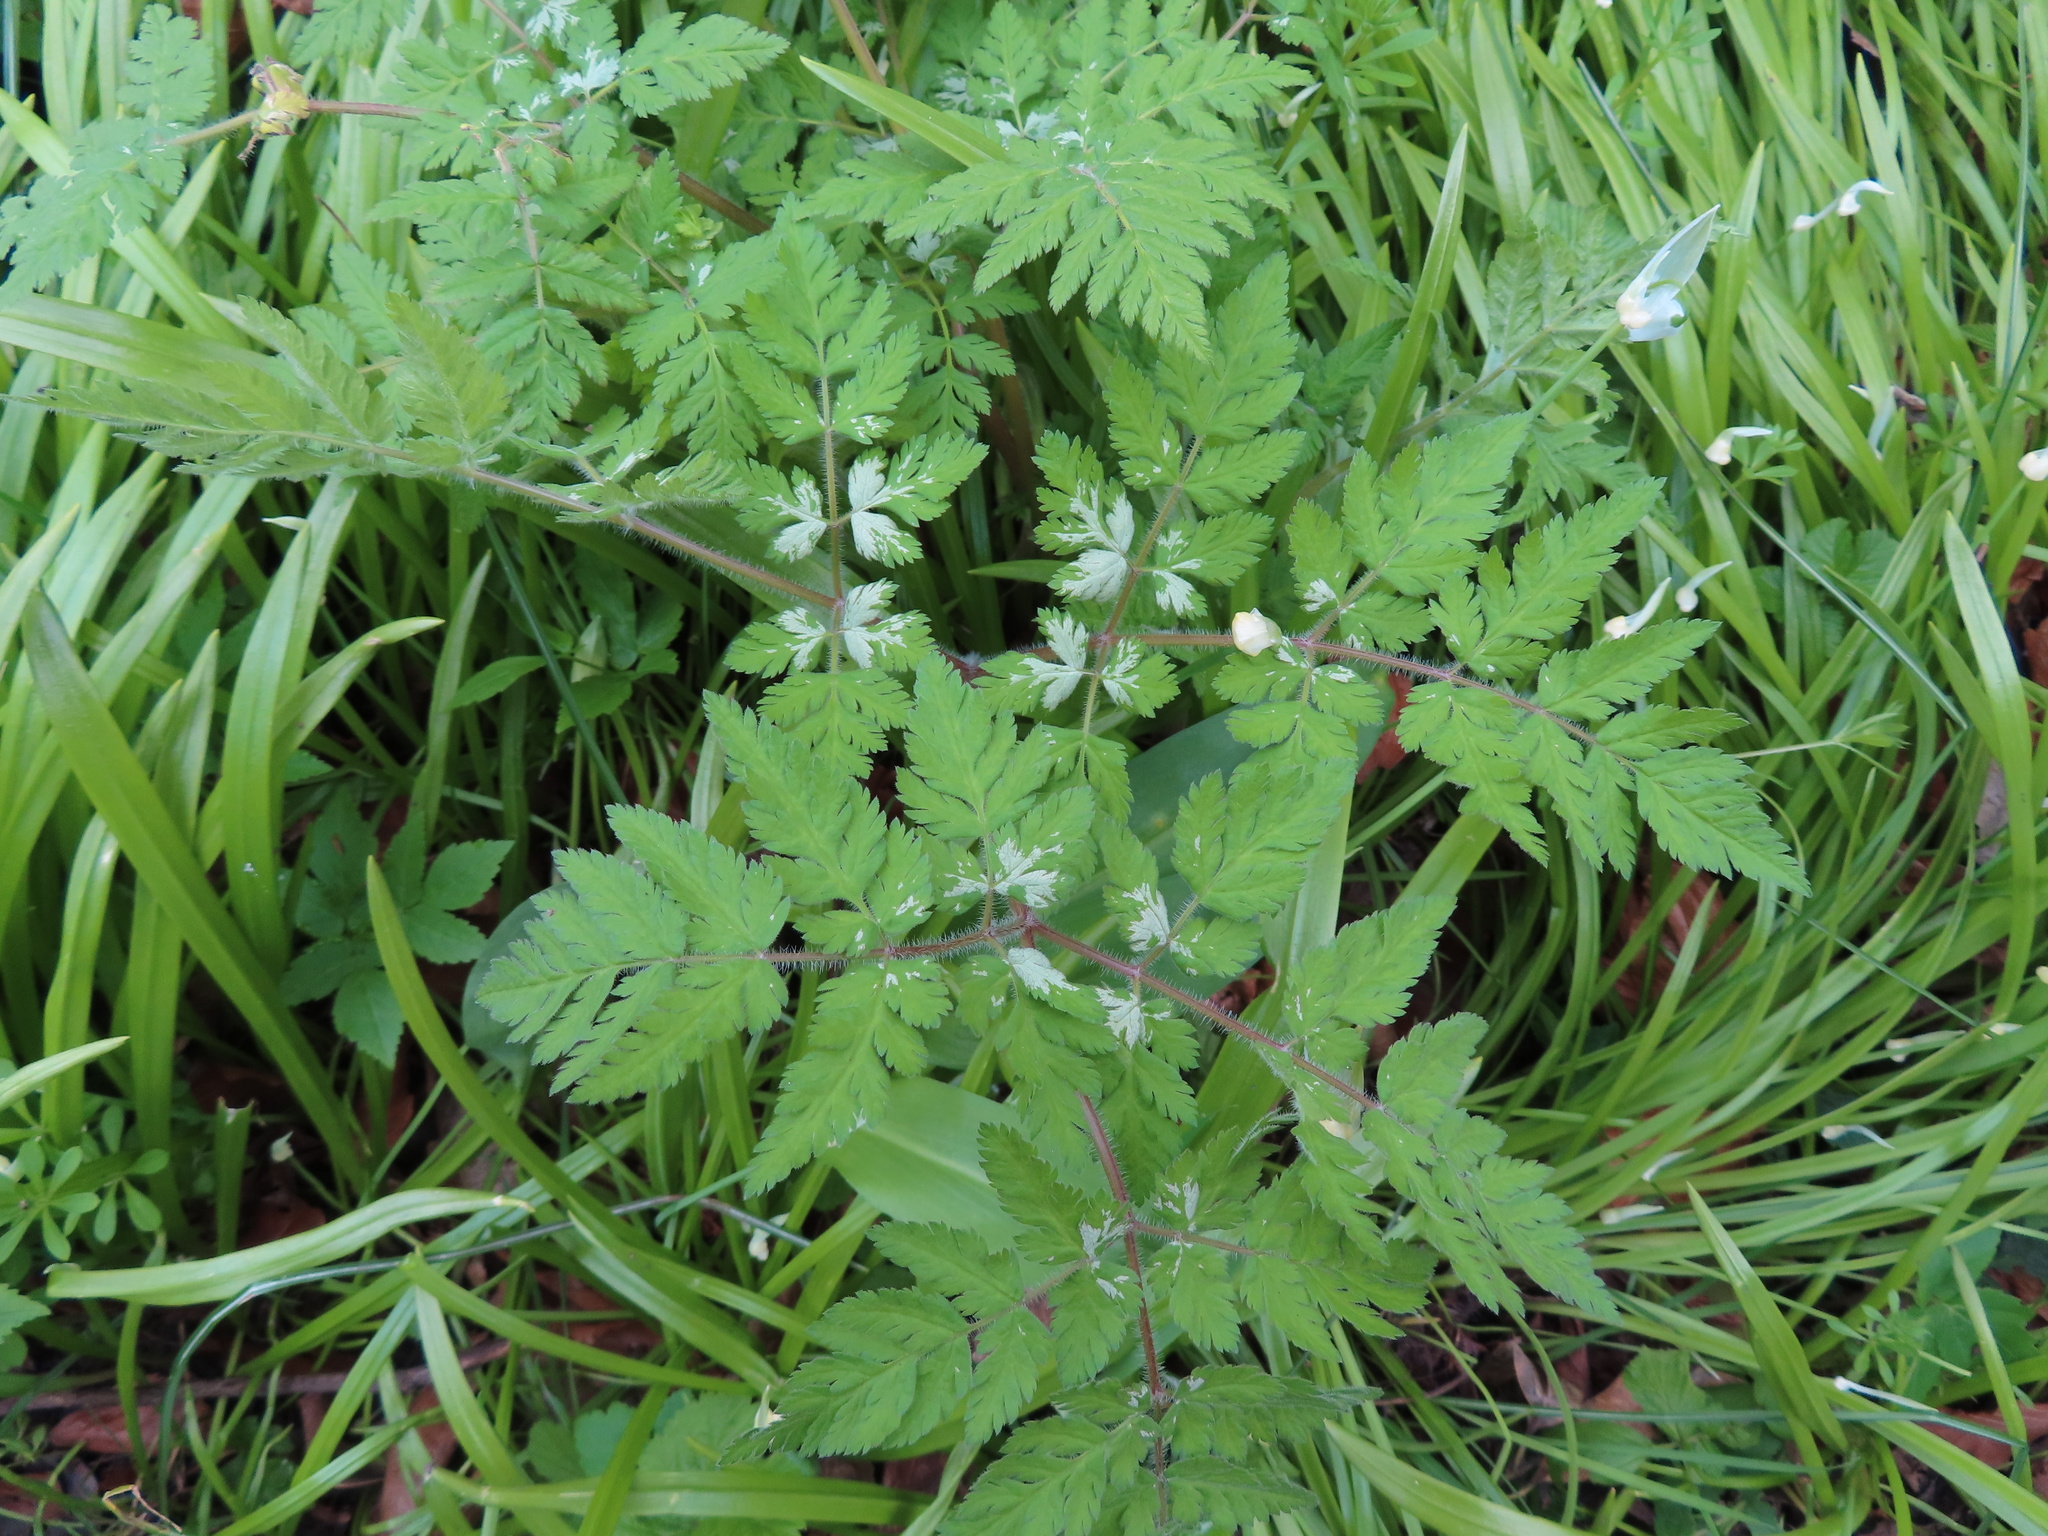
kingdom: Plantae
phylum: Tracheophyta
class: Magnoliopsida
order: Apiales
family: Apiaceae
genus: Myrrhis
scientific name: Myrrhis odorata
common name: Sweet cicely
